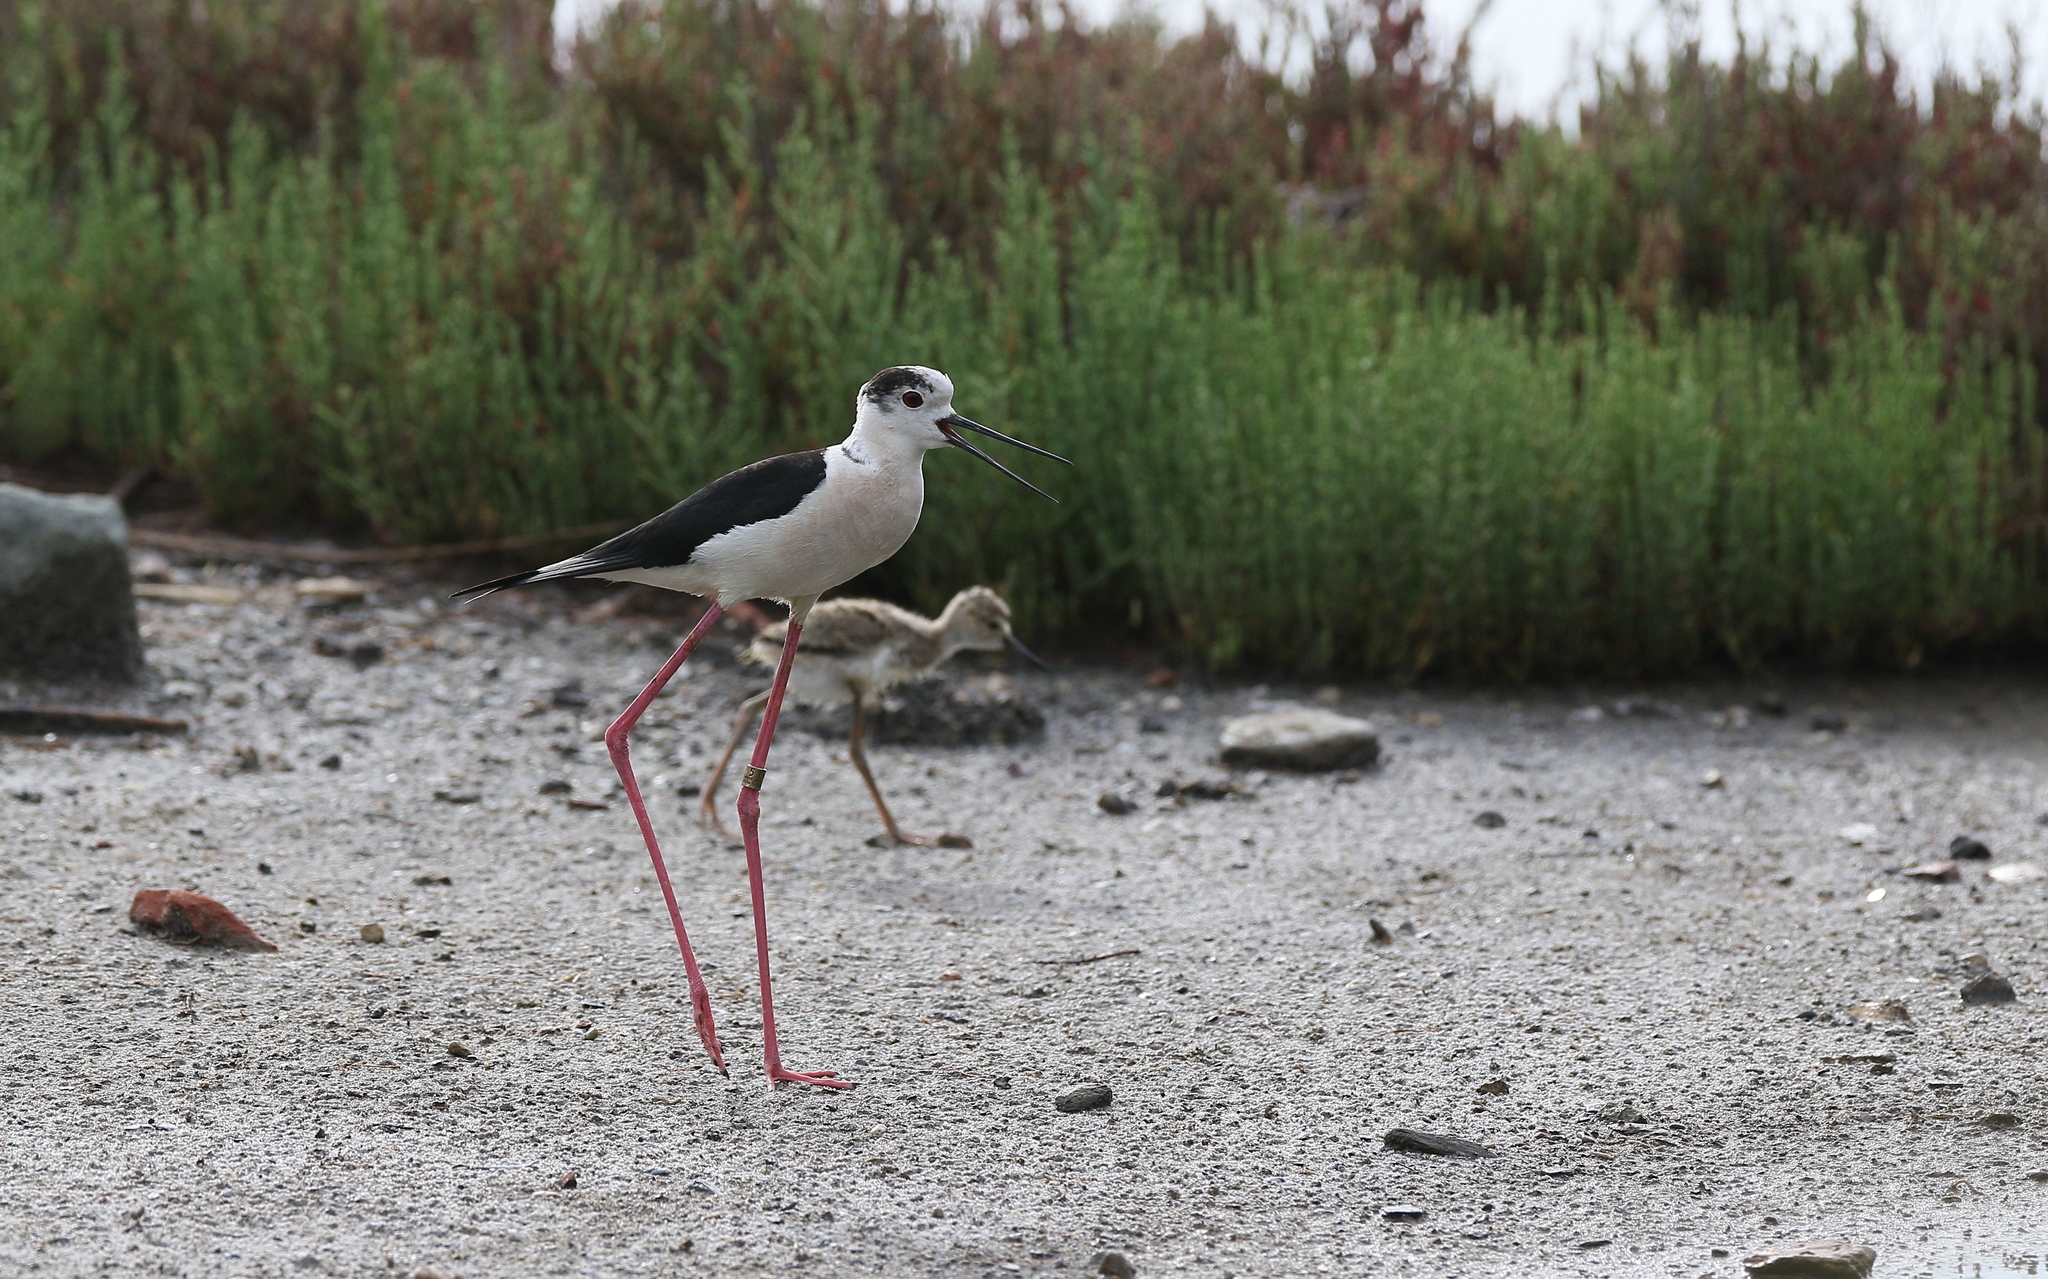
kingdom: Animalia
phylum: Chordata
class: Aves
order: Charadriiformes
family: Recurvirostridae
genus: Himantopus
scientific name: Himantopus himantopus
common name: Black-winged stilt
